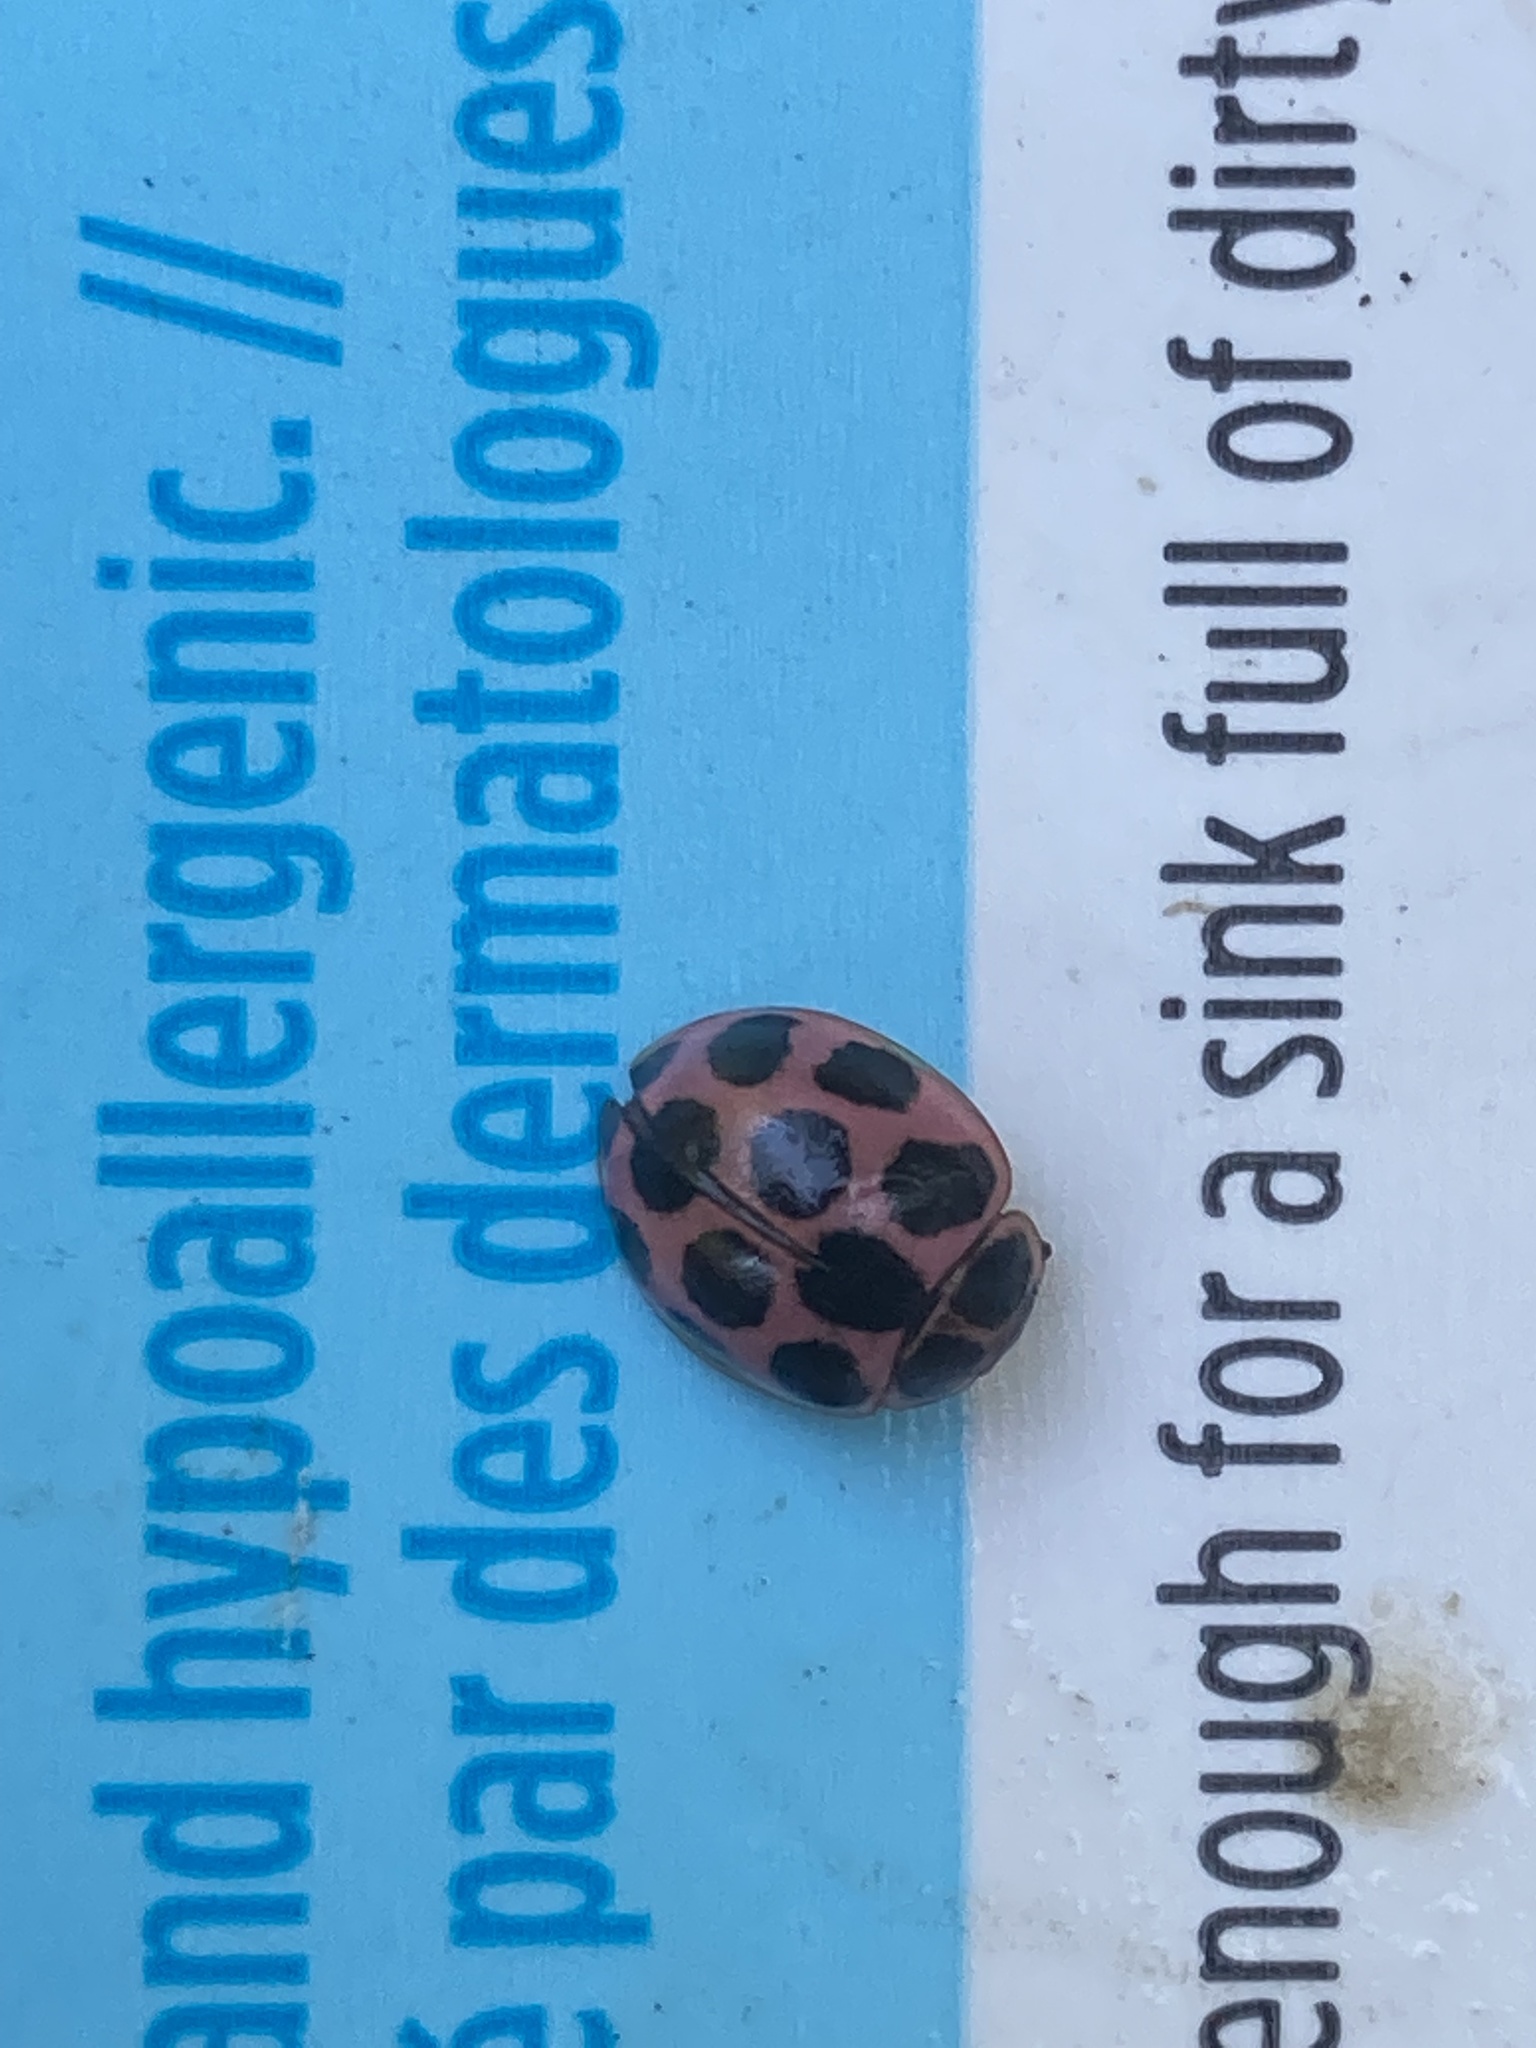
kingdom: Animalia
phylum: Arthropoda
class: Insecta
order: Coleoptera
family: Coccinellidae
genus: Calvia
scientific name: Calvia quatuordecimguttata
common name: Cream-spot ladybird
